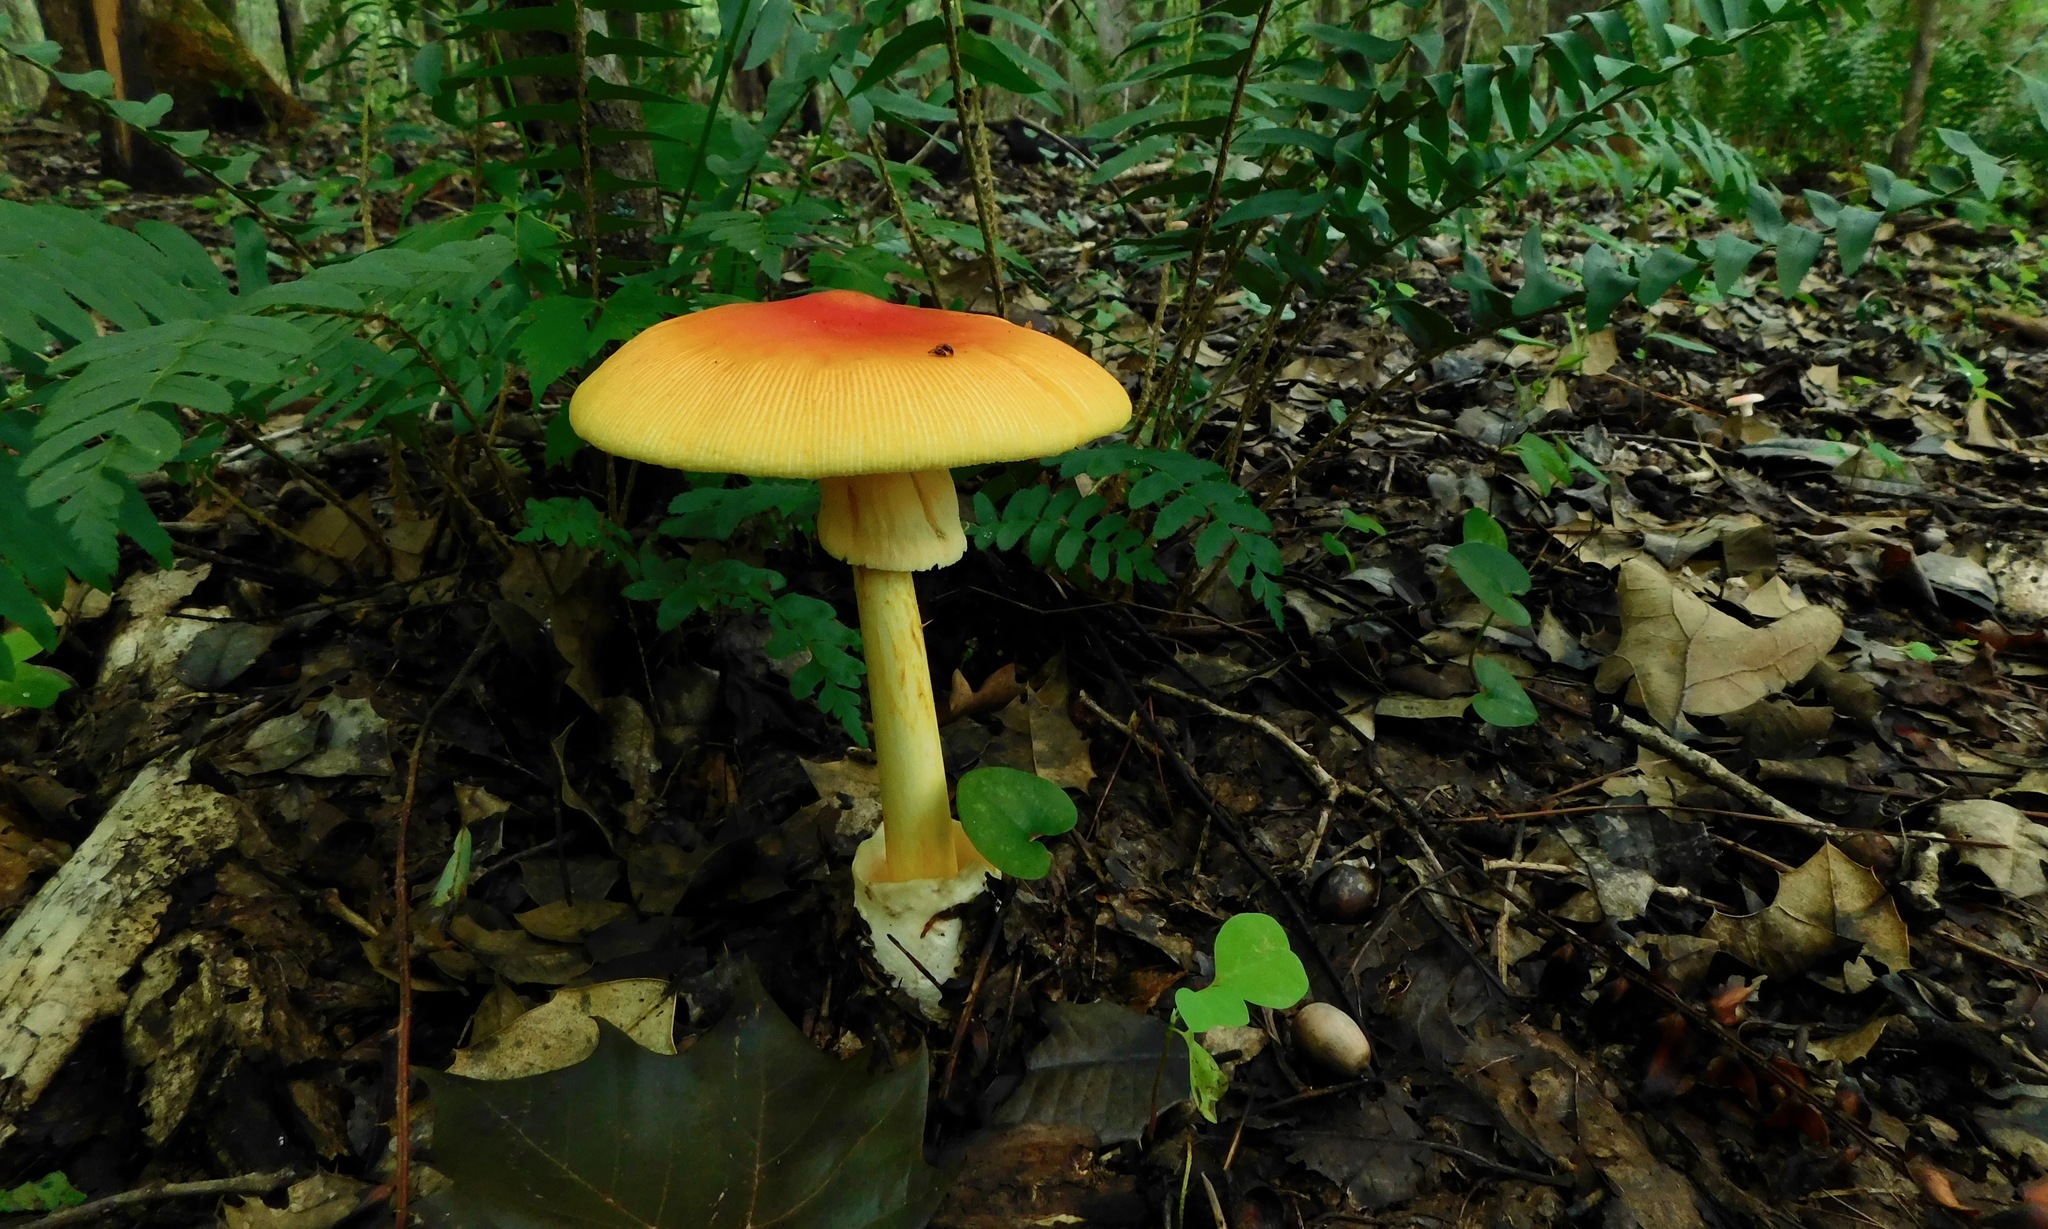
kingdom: Fungi
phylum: Basidiomycota
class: Agaricomycetes
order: Agaricales
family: Amanitaceae
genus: Amanita
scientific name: Amanita jacksonii
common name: Jackson's slender caesar
